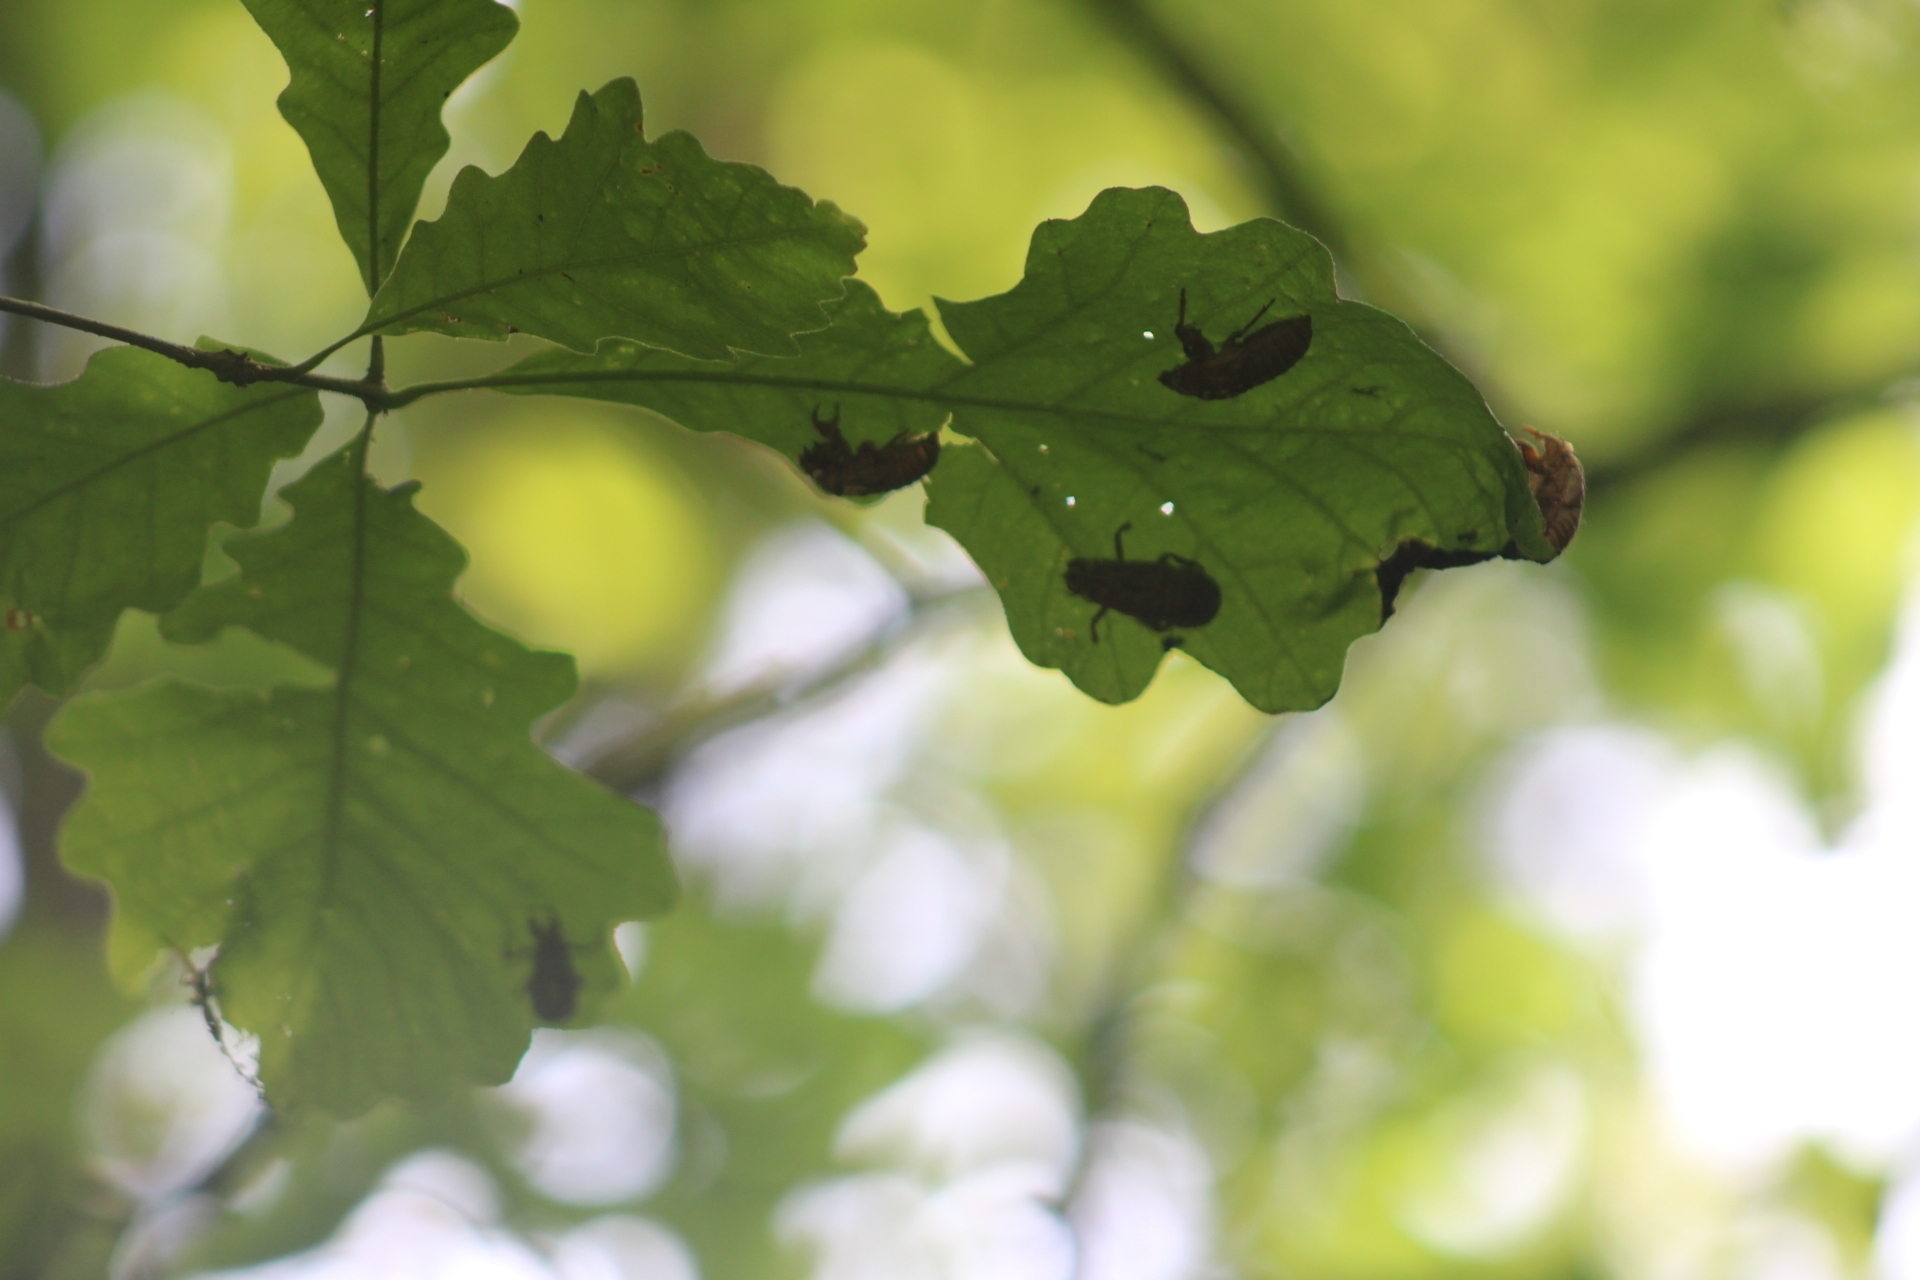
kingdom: Animalia
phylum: Arthropoda
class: Insecta
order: Hemiptera
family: Cicadidae
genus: Magicicada
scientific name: Magicicada
